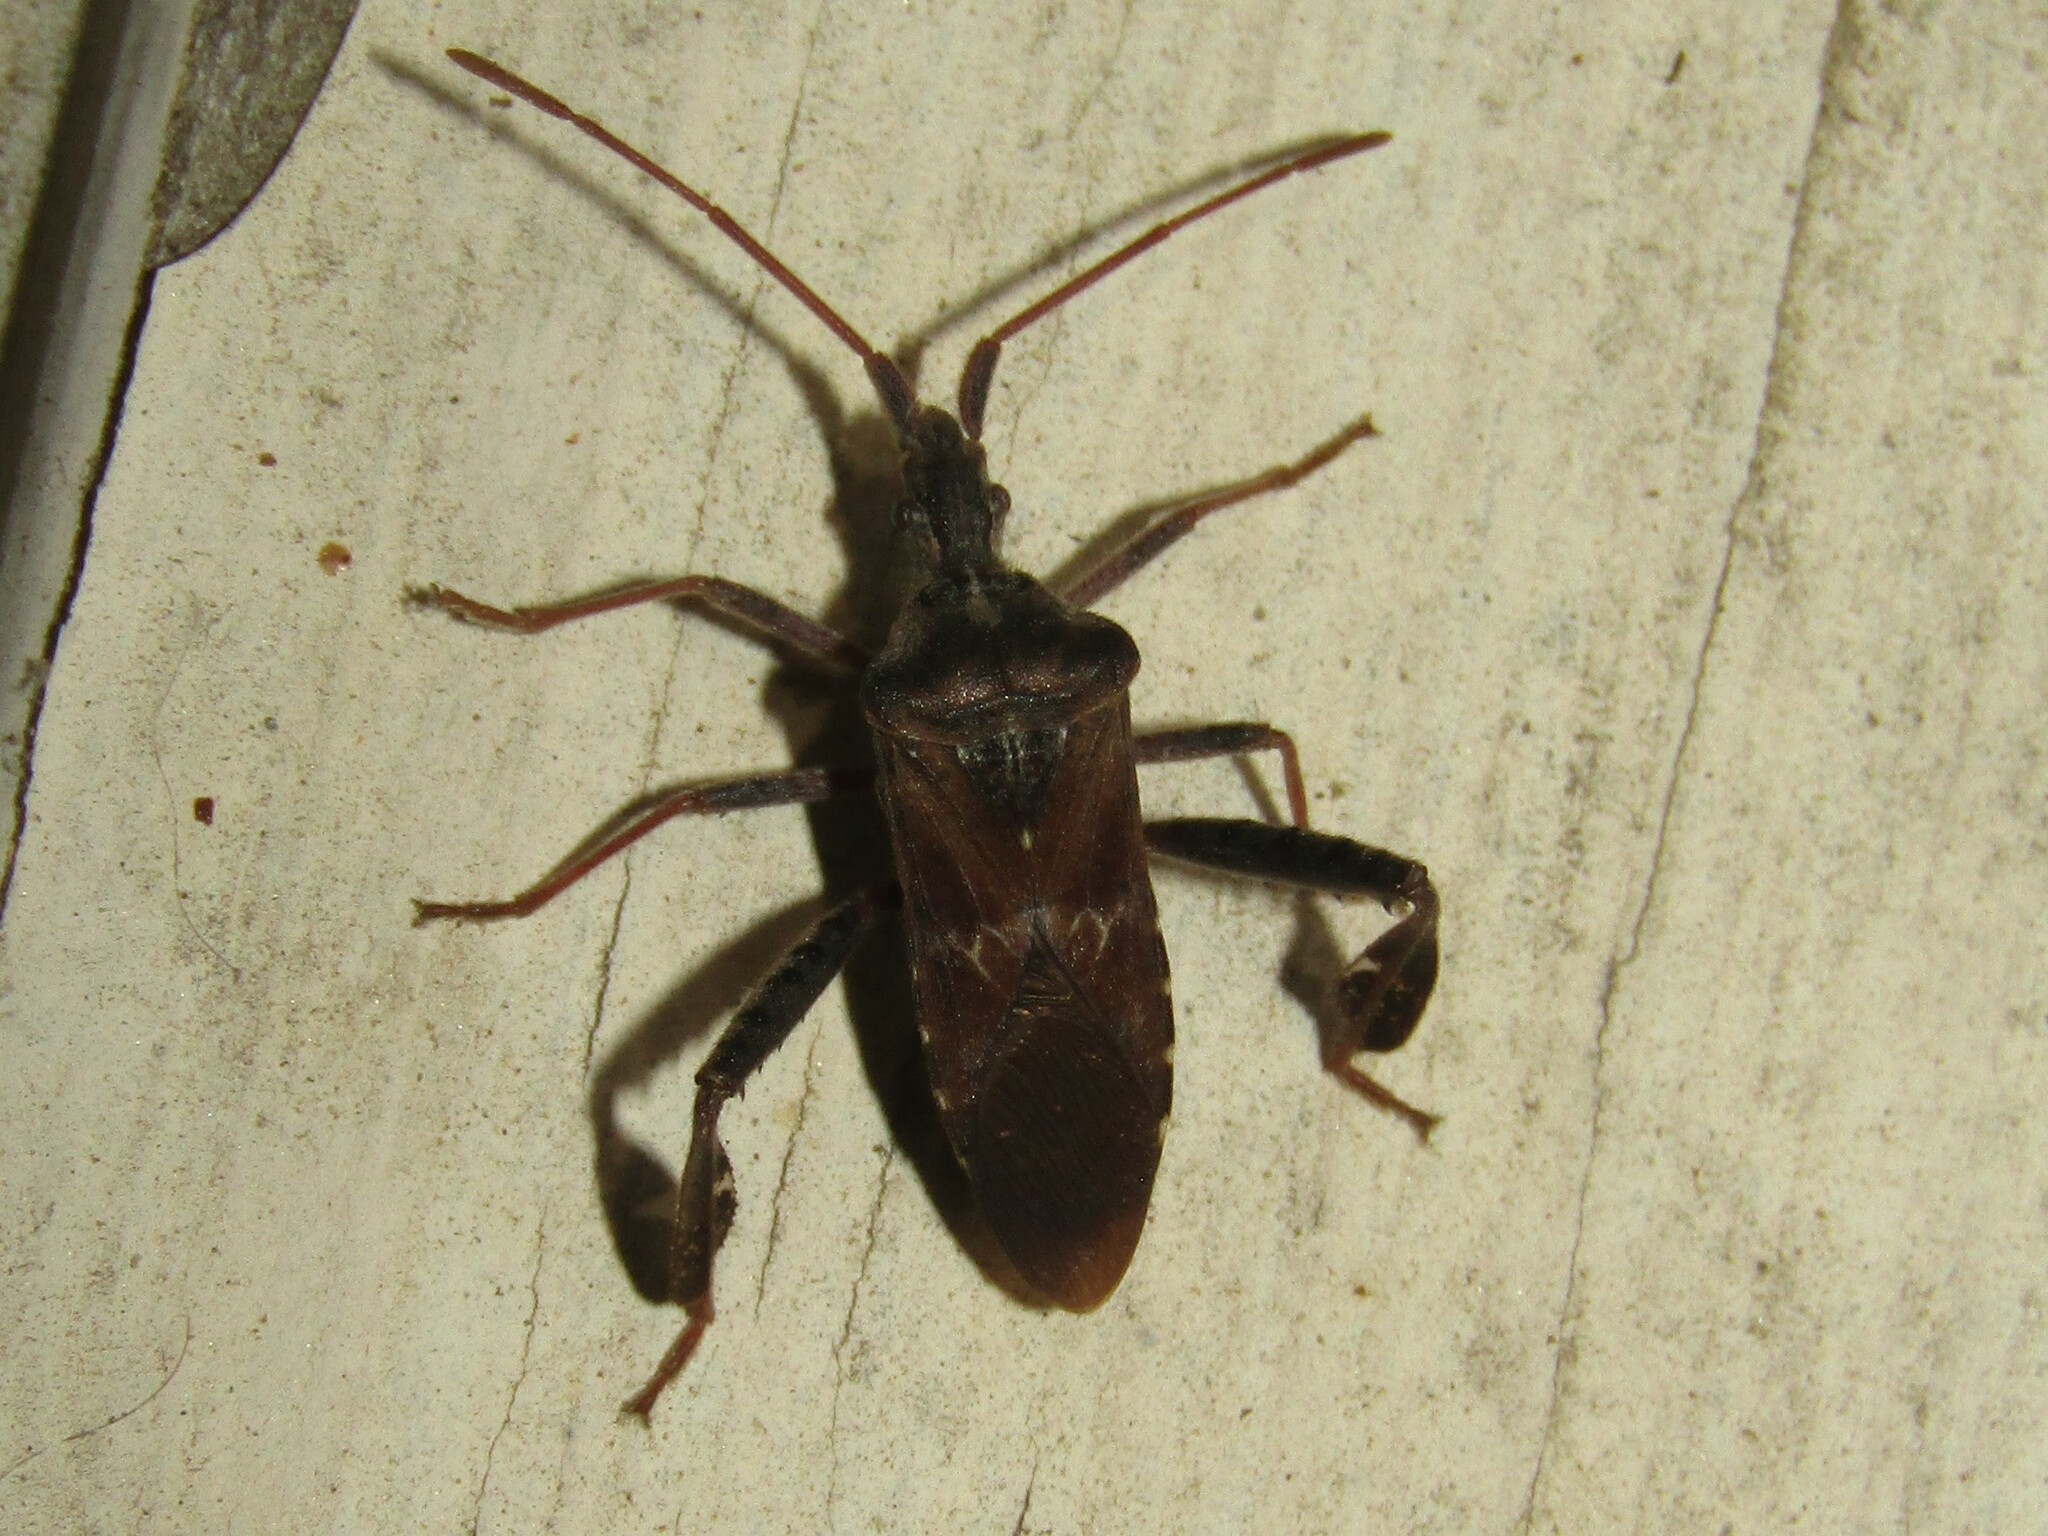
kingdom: Animalia
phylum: Arthropoda
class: Insecta
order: Hemiptera
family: Coreidae
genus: Leptoglossus
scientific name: Leptoglossus corculus
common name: Southern pine seed bug
